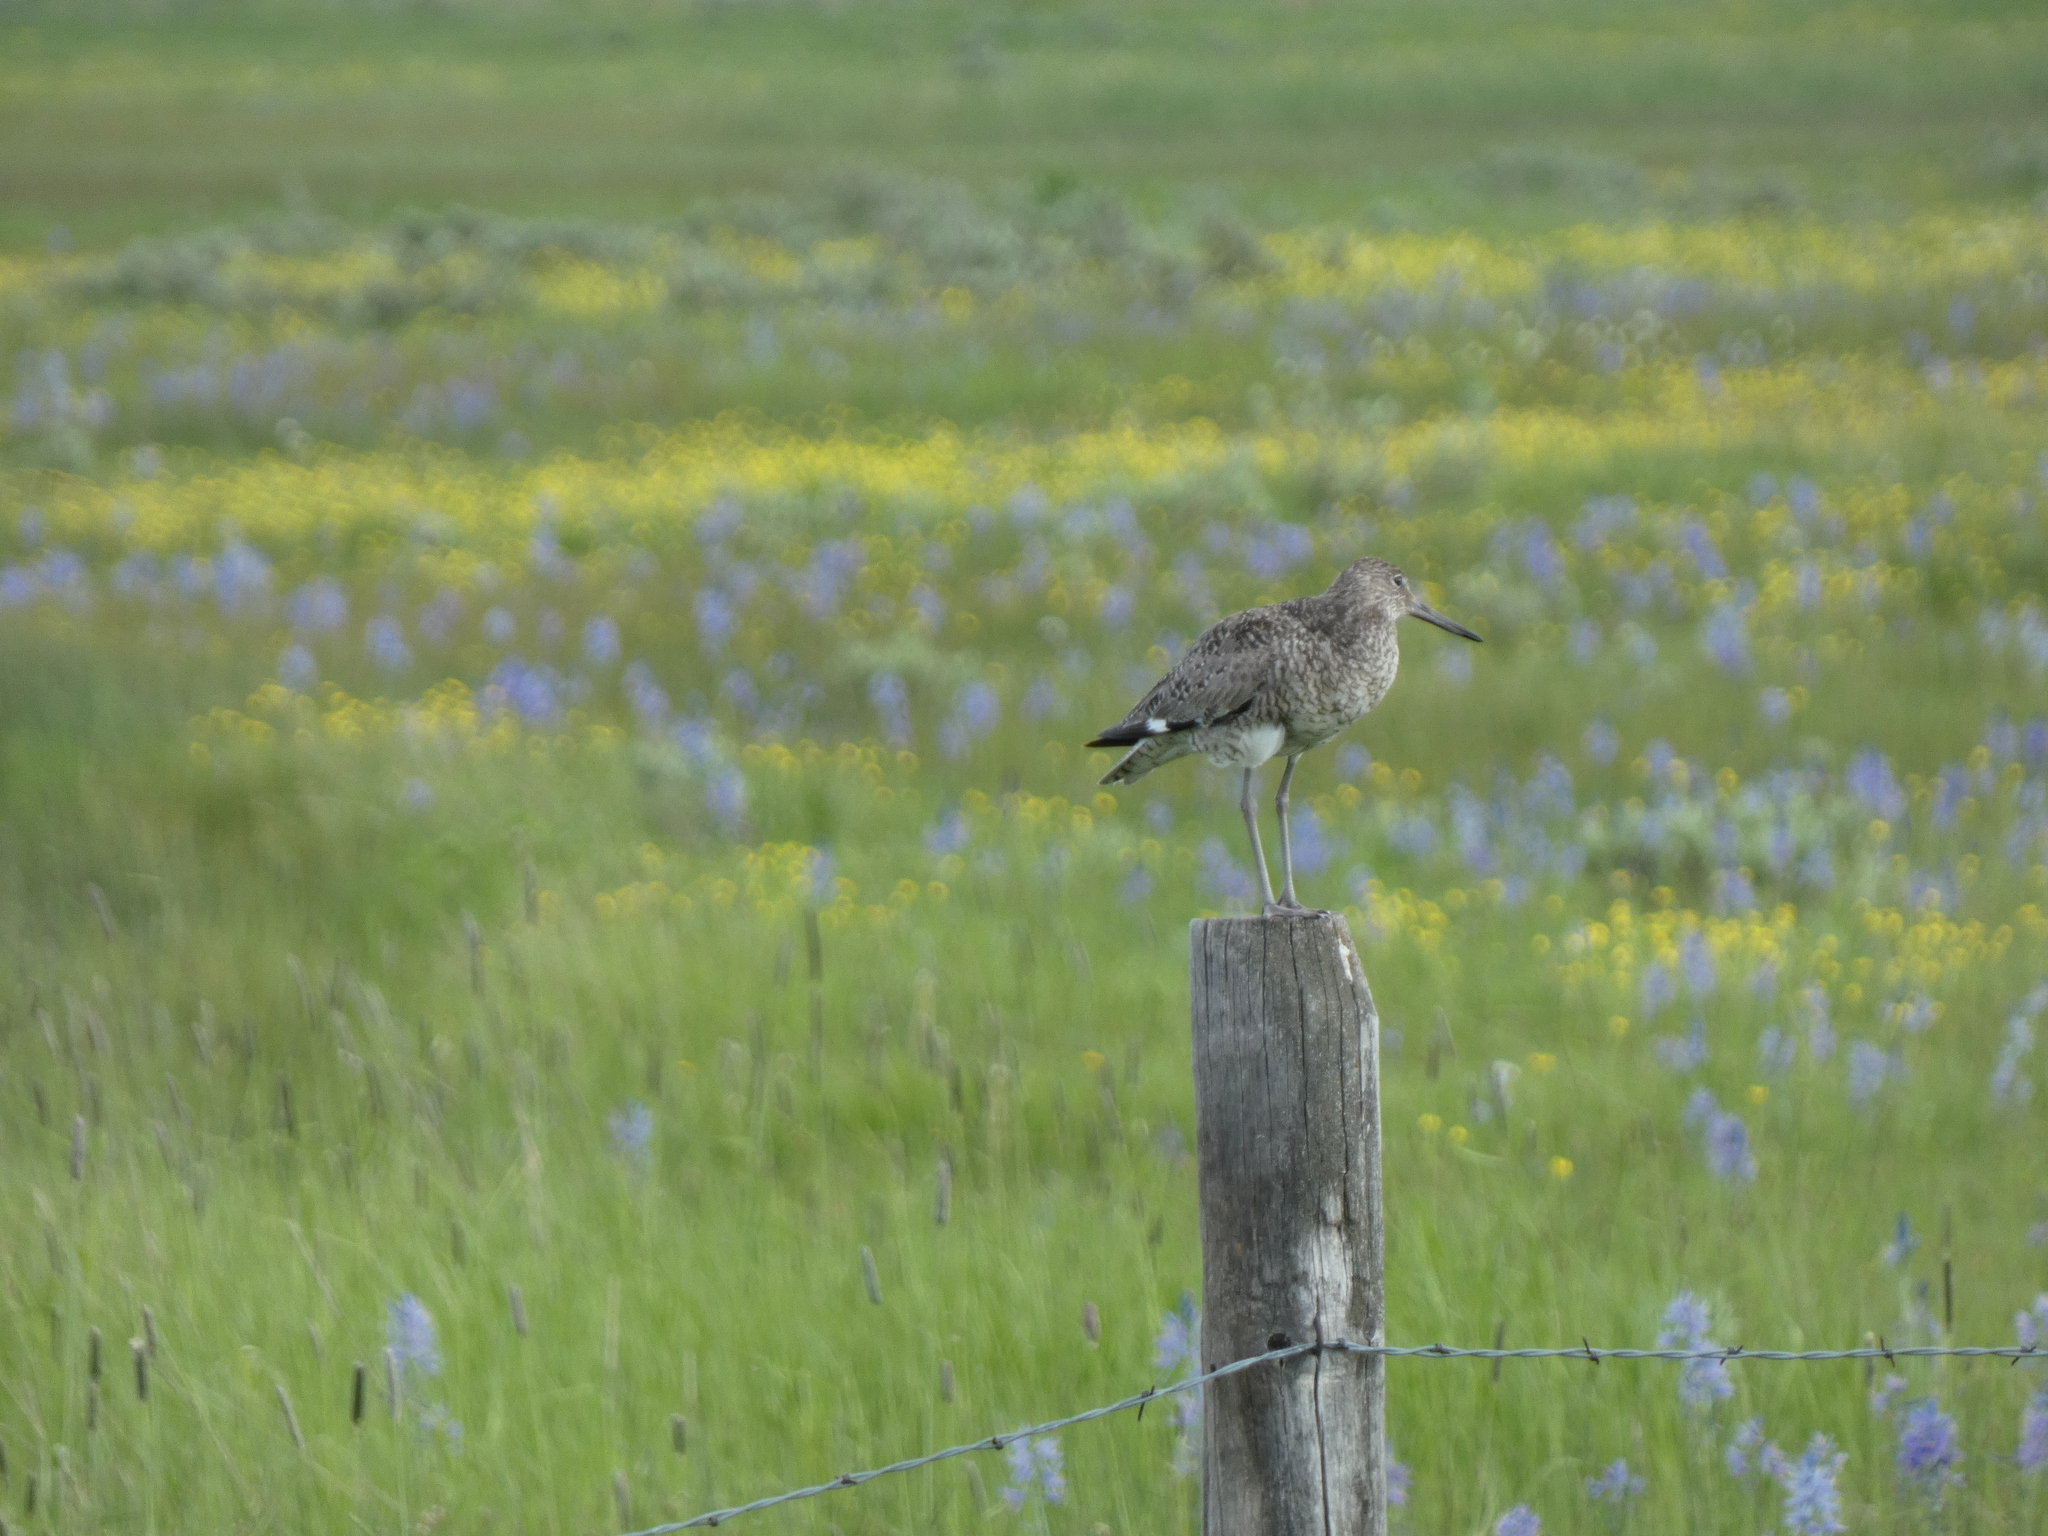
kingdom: Animalia
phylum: Chordata
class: Aves
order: Charadriiformes
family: Scolopacidae
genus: Tringa
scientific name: Tringa semipalmata
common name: Willet
